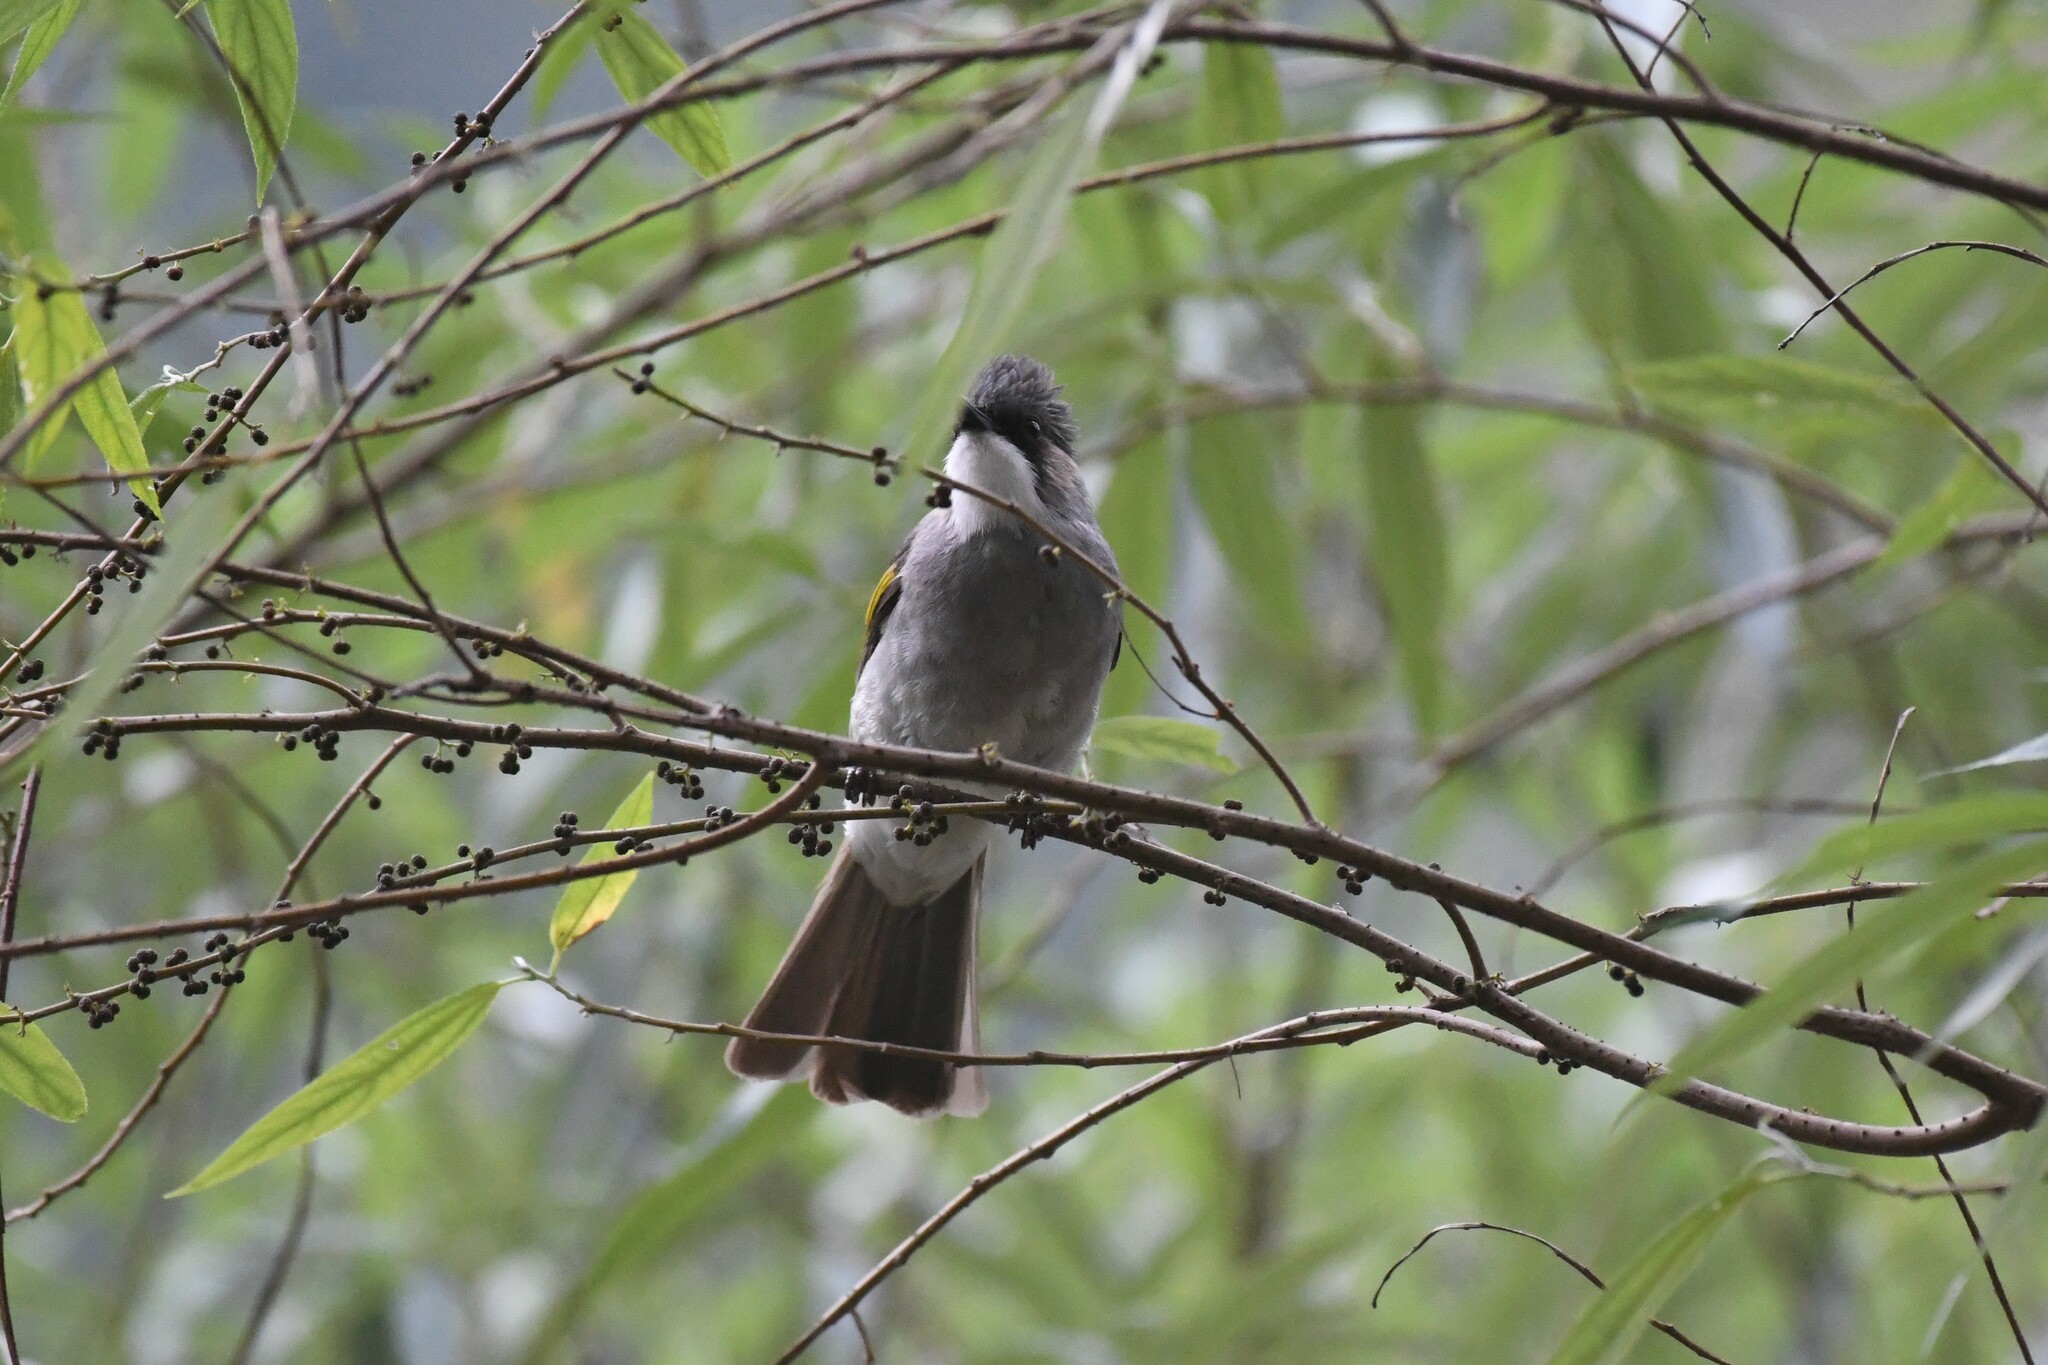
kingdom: Animalia
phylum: Chordata
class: Aves
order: Passeriformes
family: Pycnonotidae
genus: Hemixos
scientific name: Hemixos flavala
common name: Ashy bulbul
